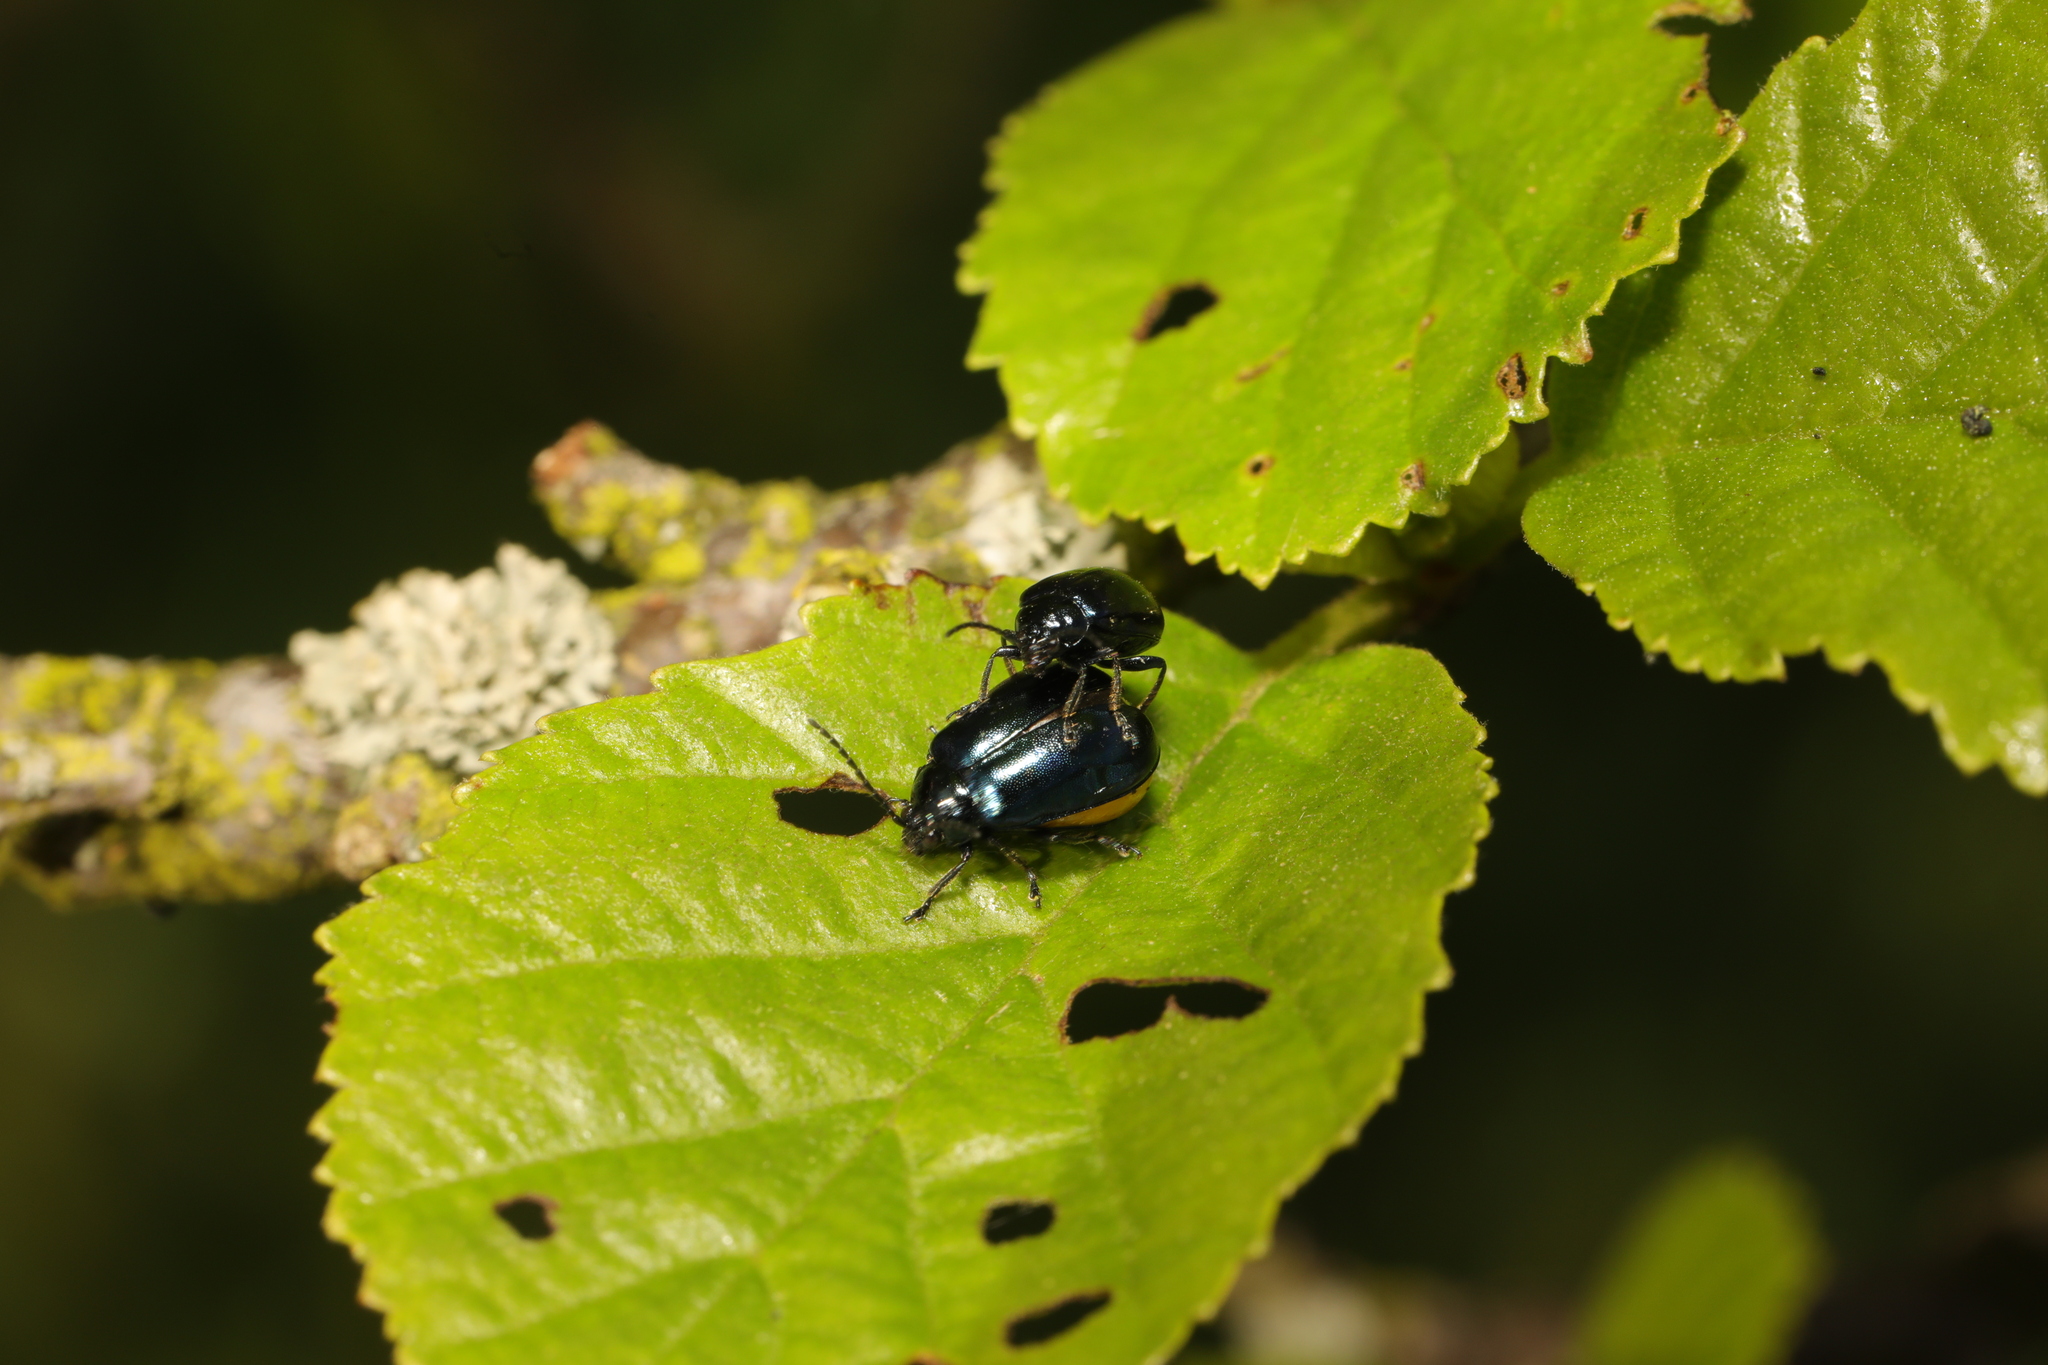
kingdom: Animalia
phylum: Arthropoda
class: Insecta
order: Coleoptera
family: Chrysomelidae
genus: Agelastica
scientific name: Agelastica alni
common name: Alder leaf beetle
